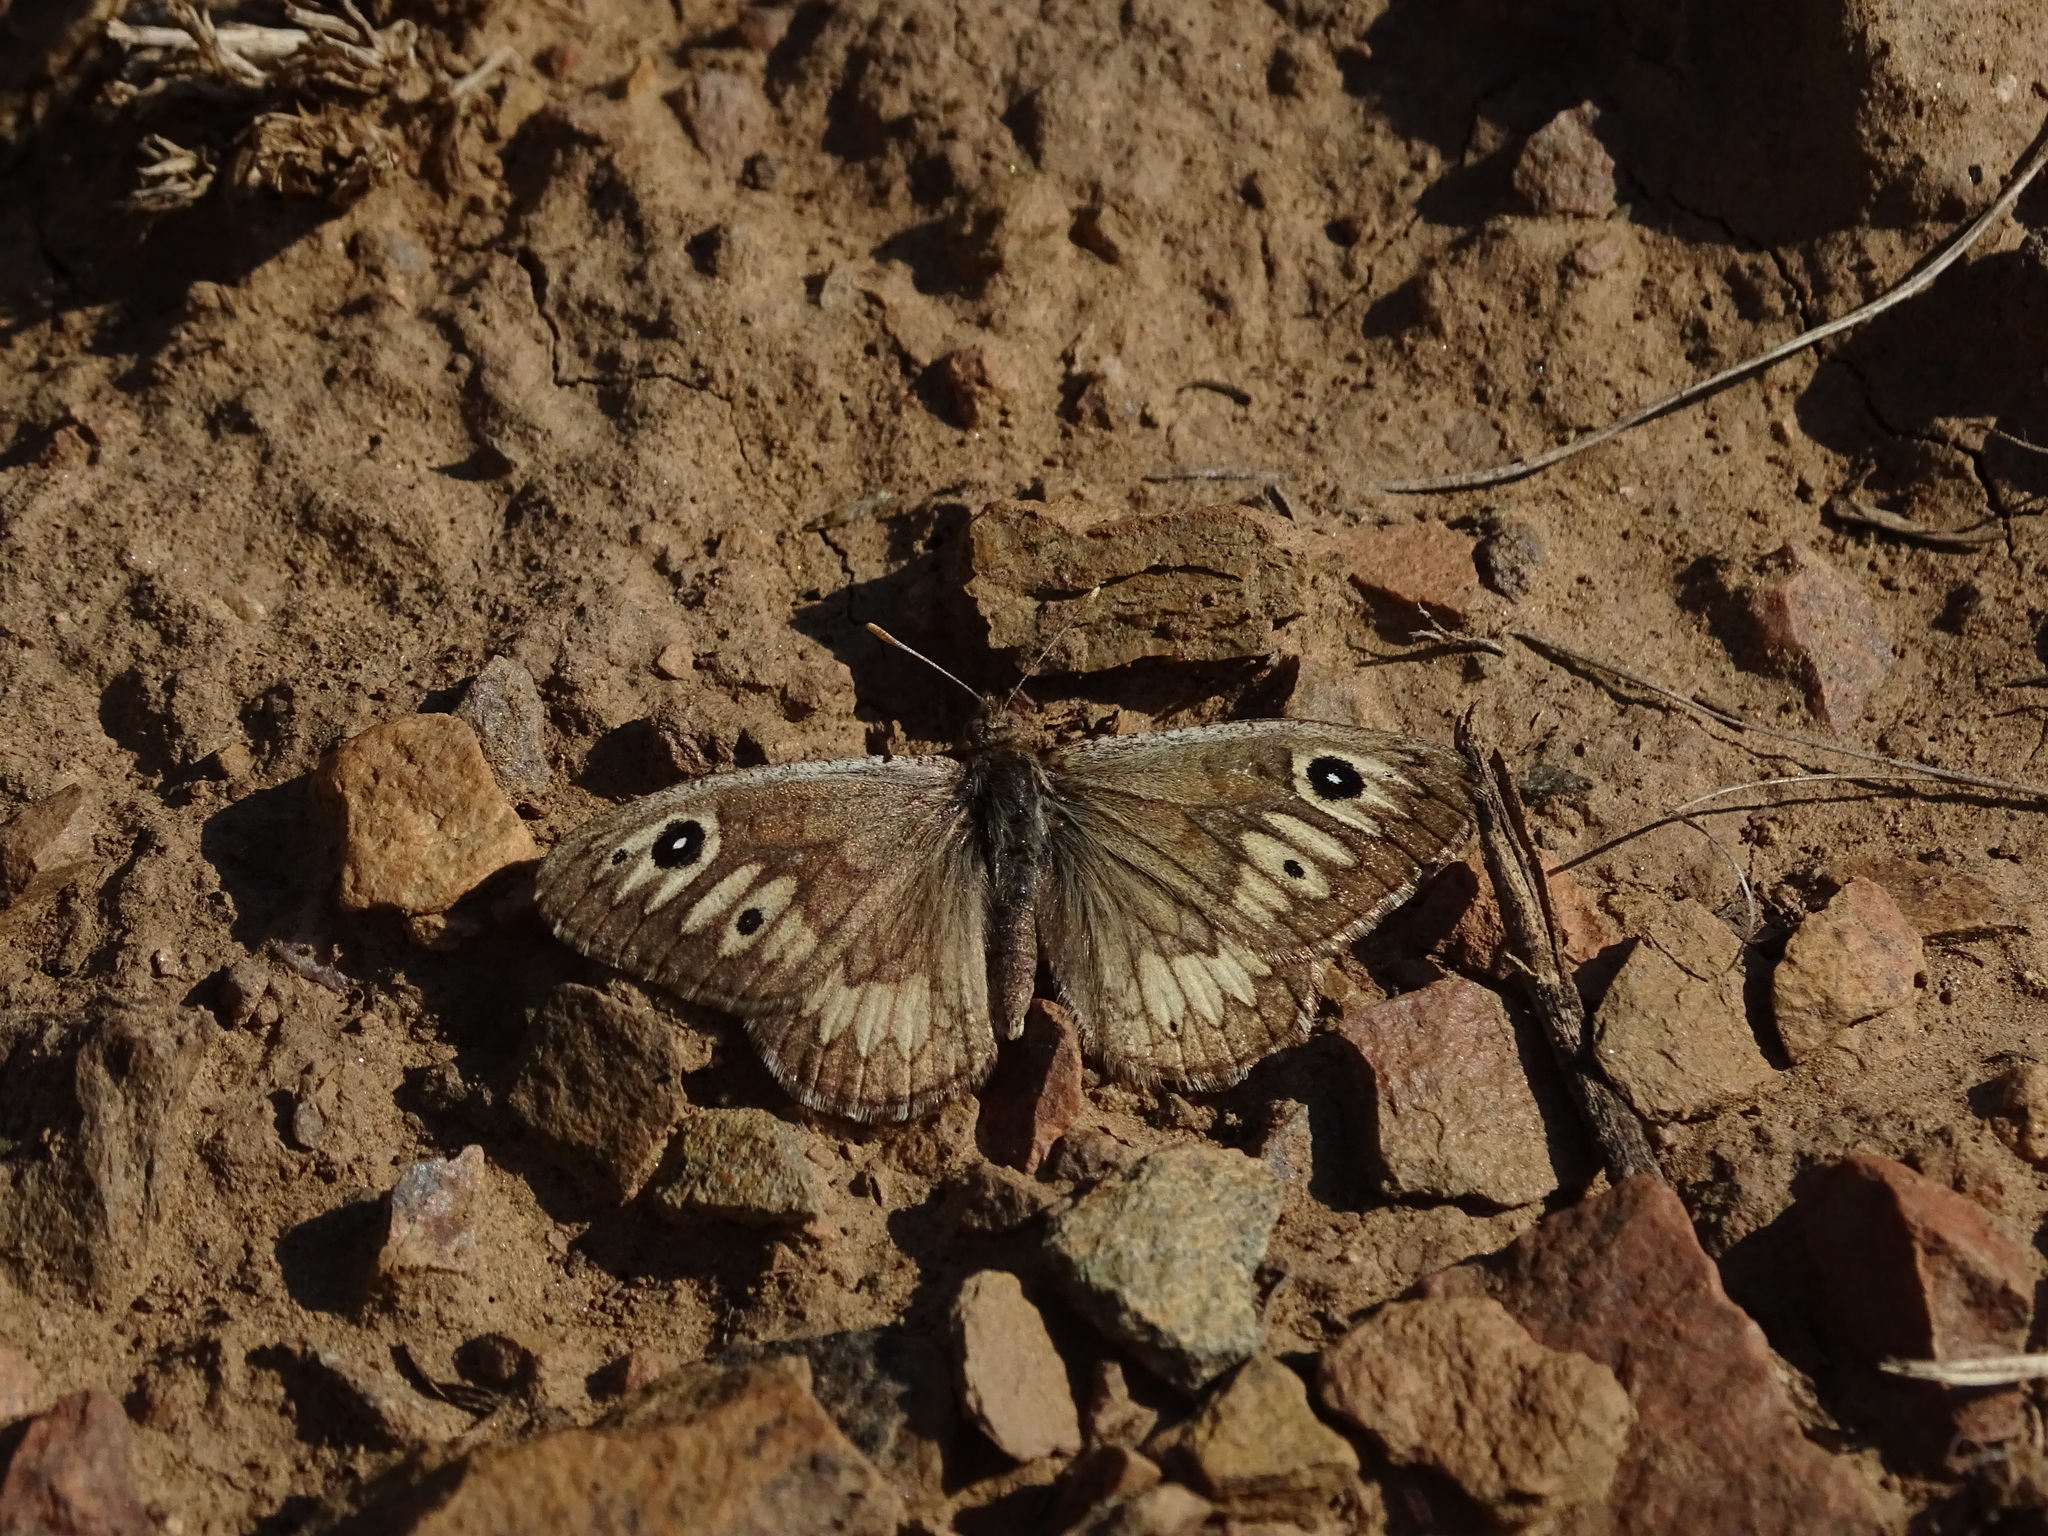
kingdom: Animalia
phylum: Arthropoda
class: Insecta
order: Lepidoptera
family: Nymphalidae
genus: Neominois
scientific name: Neominois ridingsii
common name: Ridings' satyr
